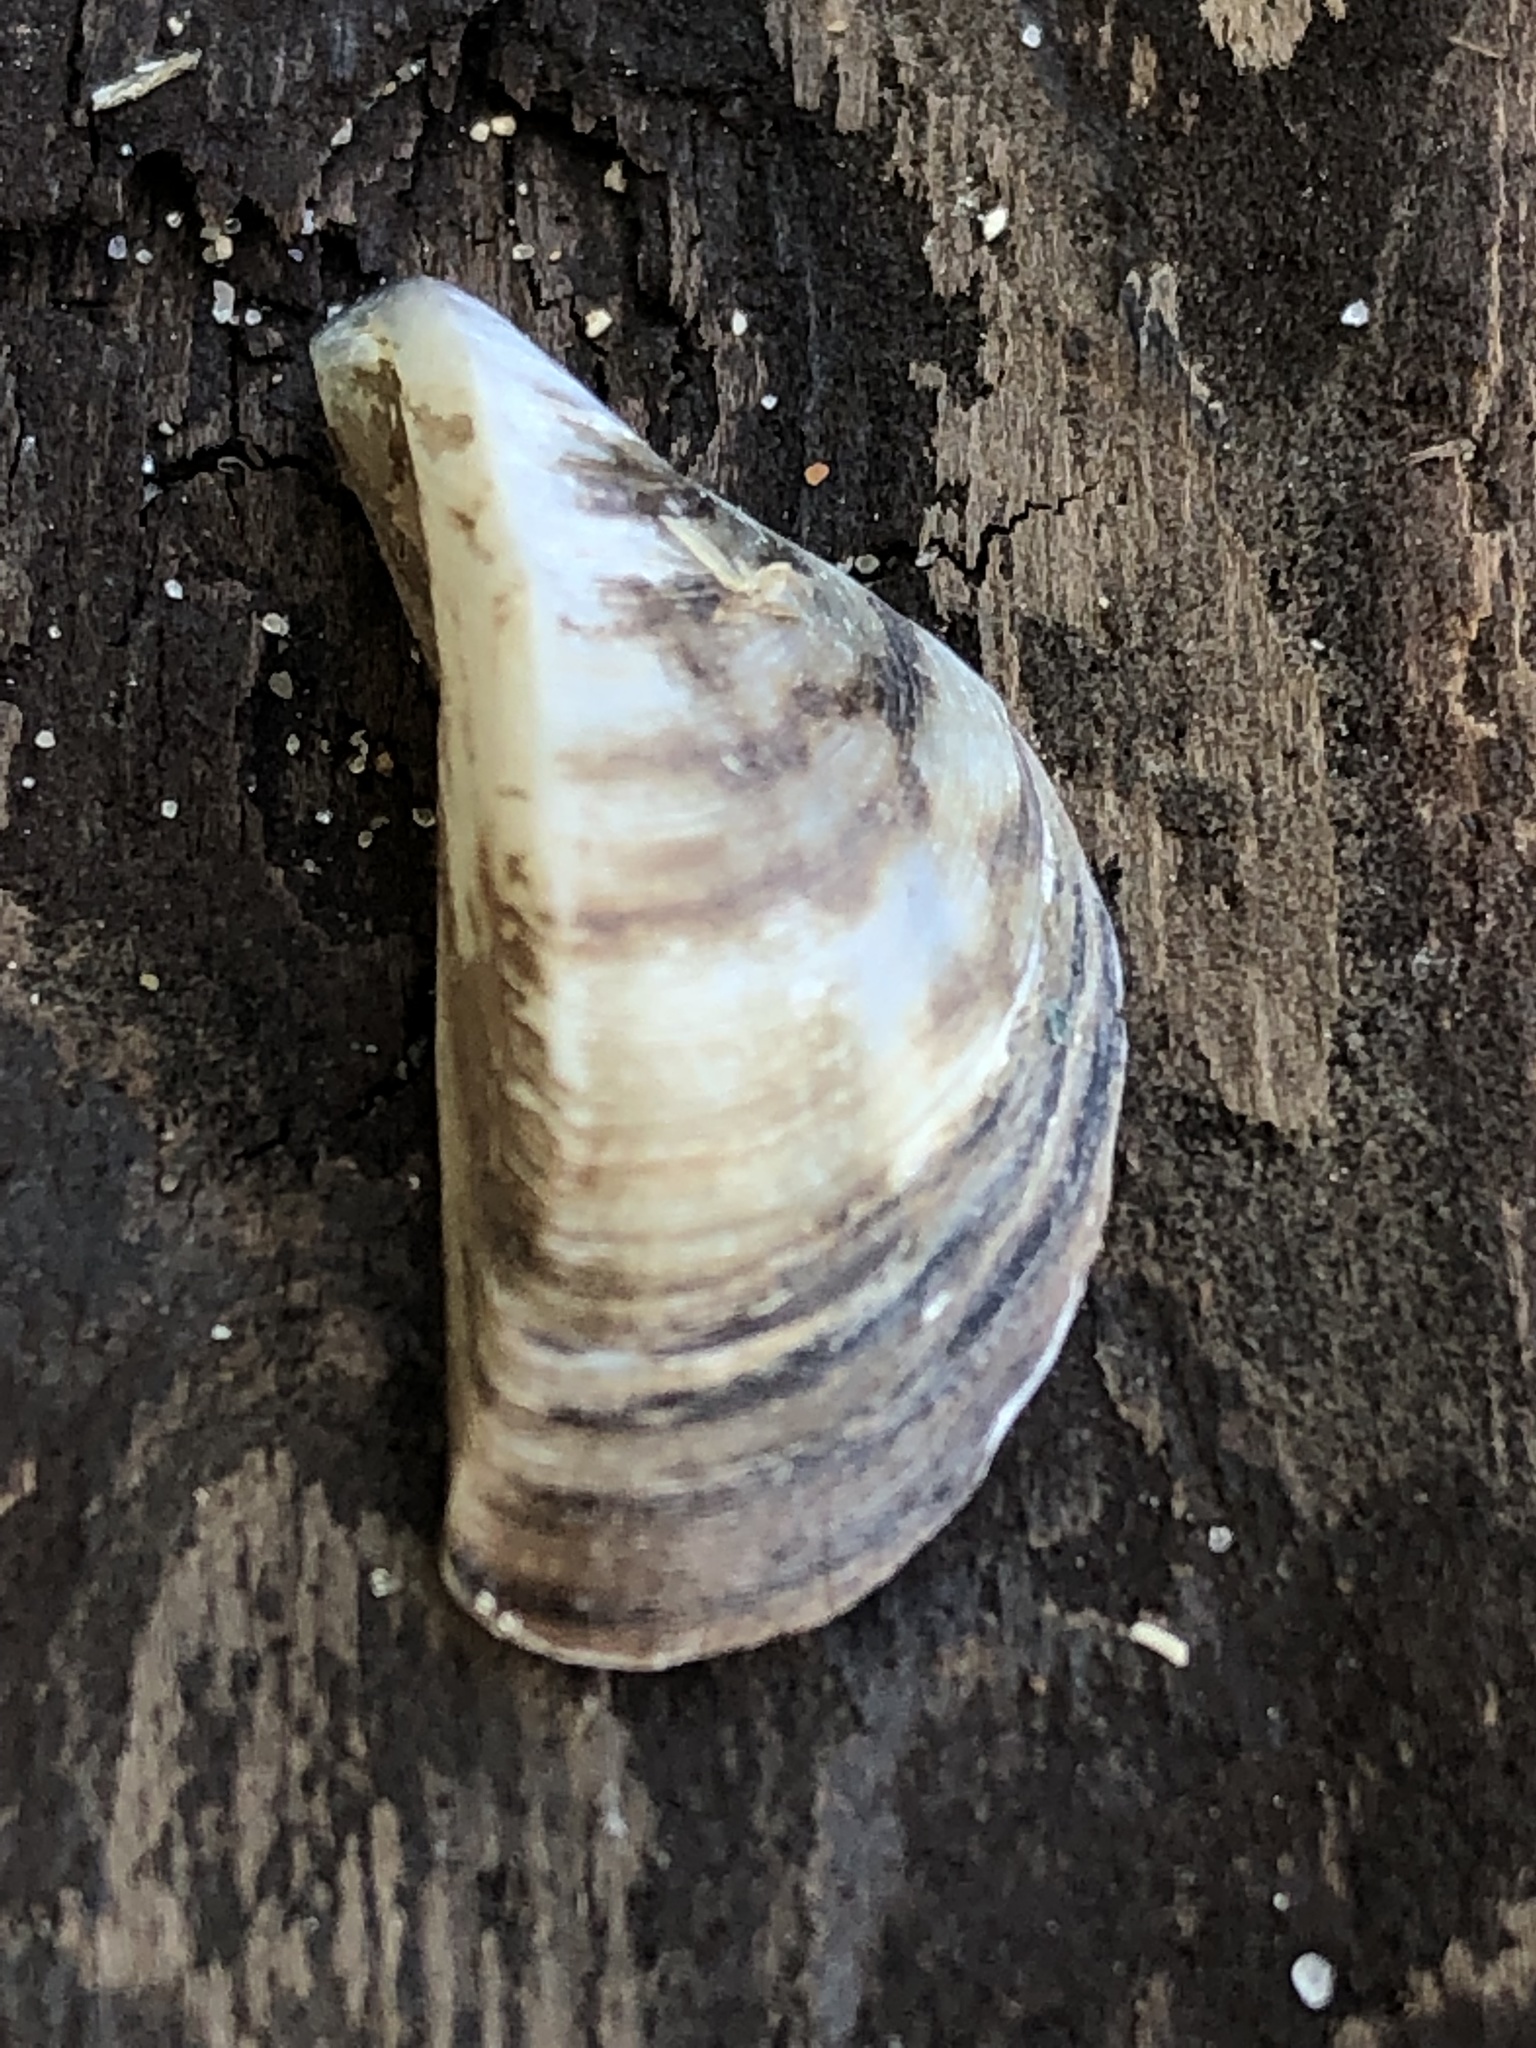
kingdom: Animalia
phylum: Mollusca
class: Bivalvia
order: Myida
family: Dreissenidae
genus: Dreissena
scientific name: Dreissena polymorpha
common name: Zebra mussel
